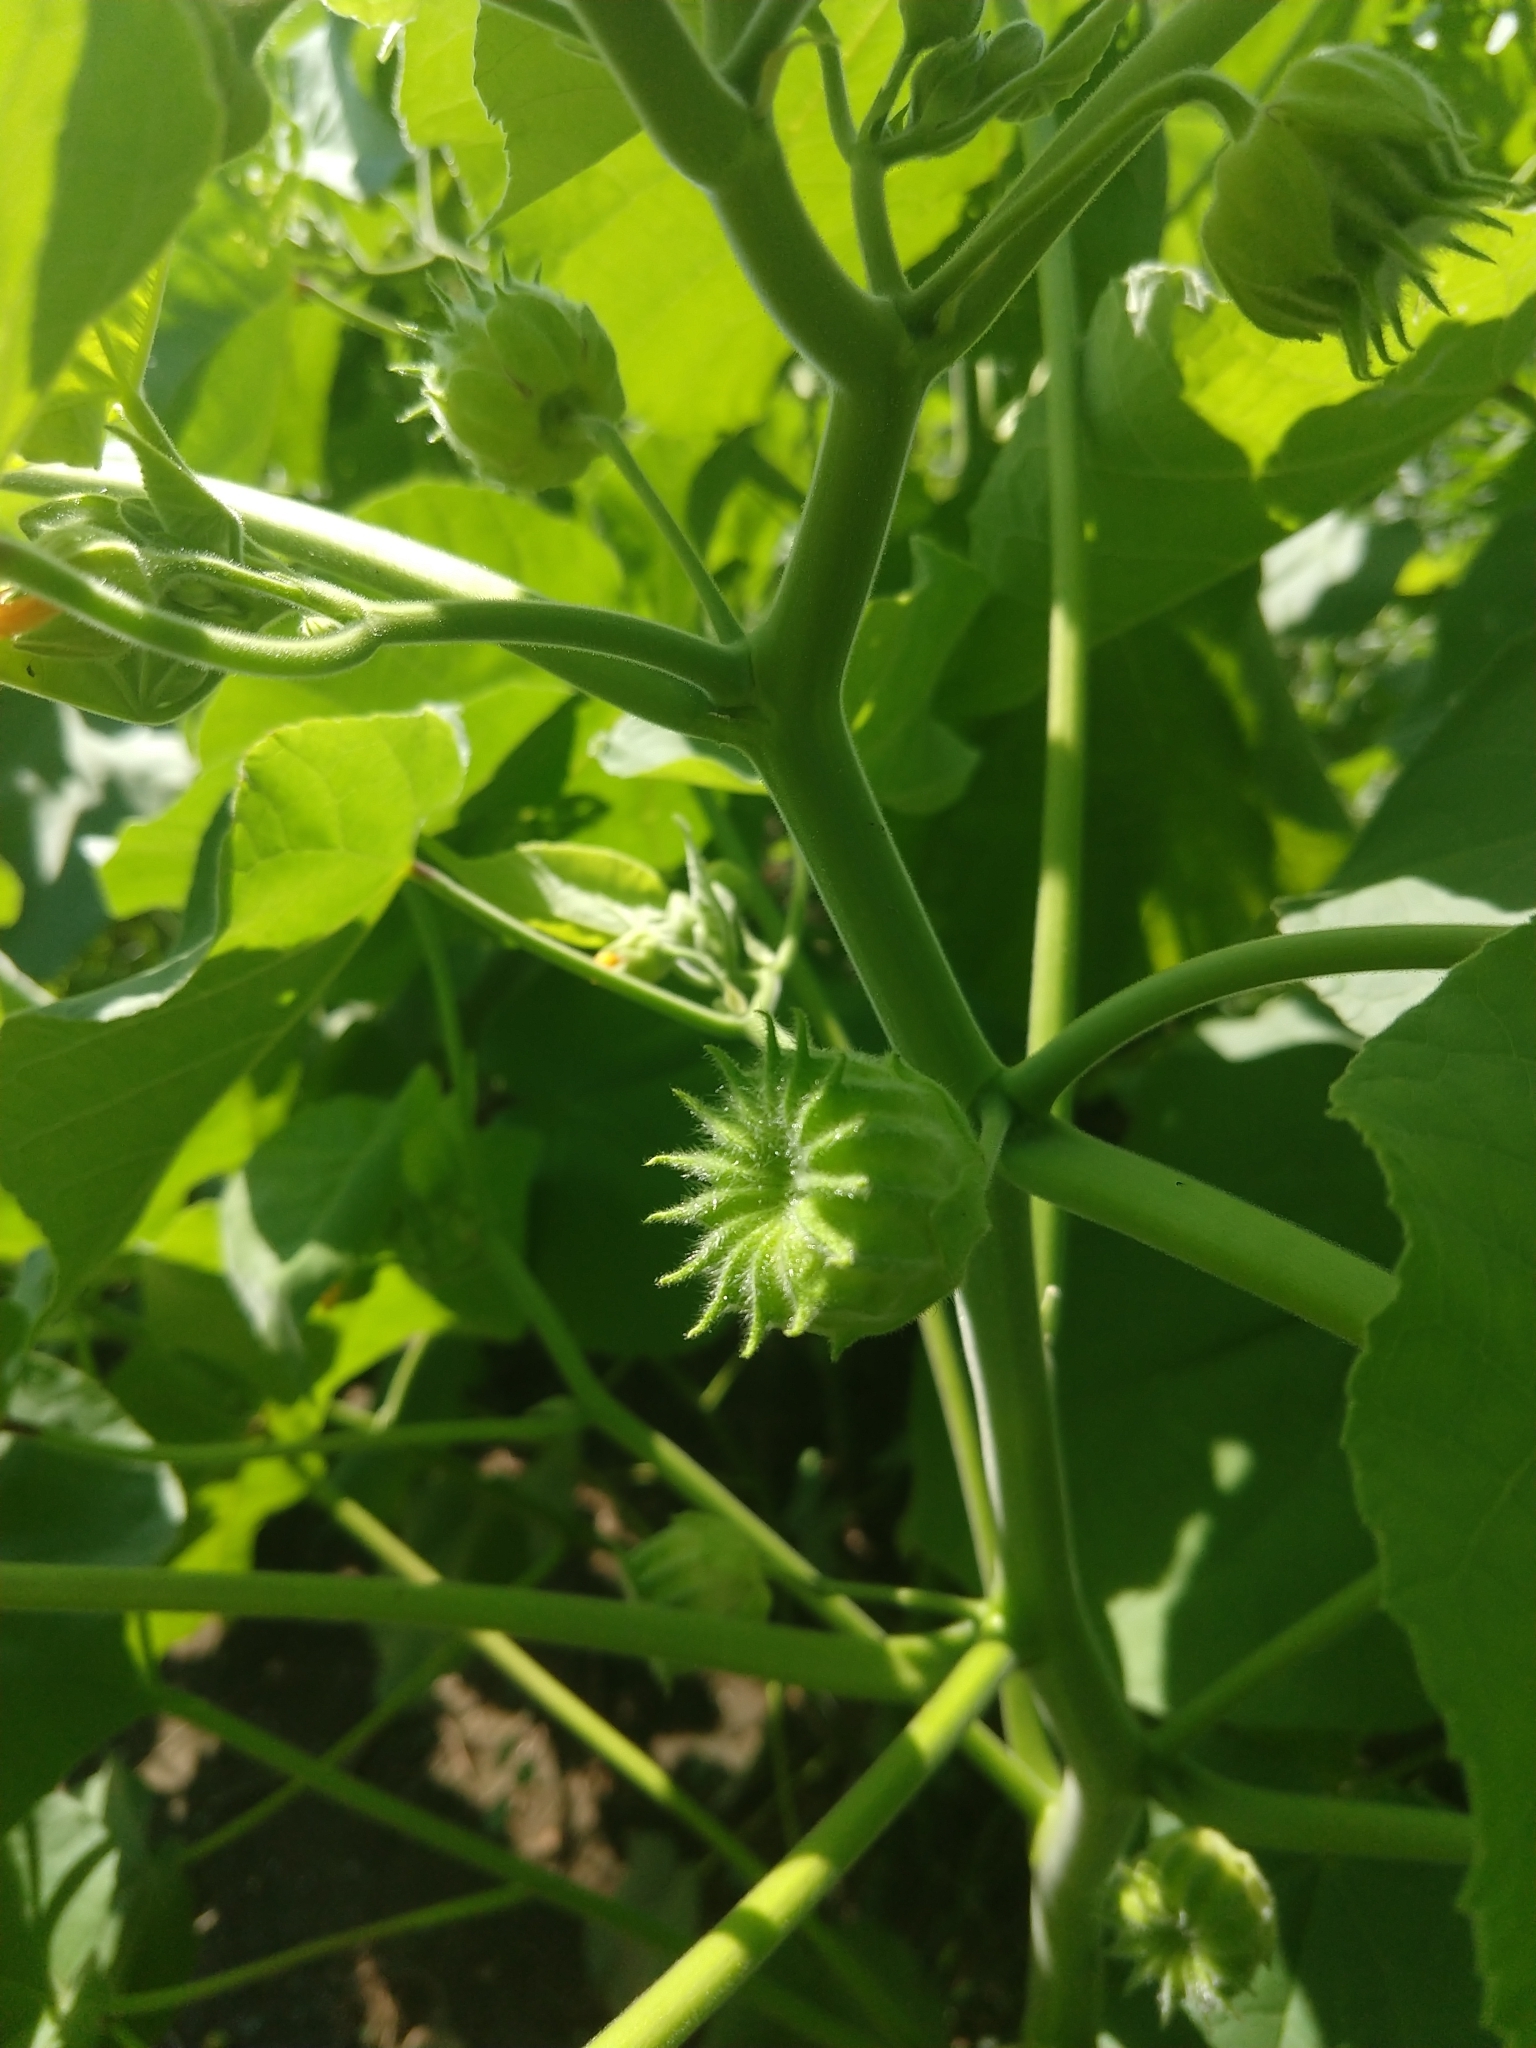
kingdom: Plantae
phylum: Tracheophyta
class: Magnoliopsida
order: Malvales
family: Malvaceae
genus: Abutilon
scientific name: Abutilon theophrasti
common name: Velvetleaf
